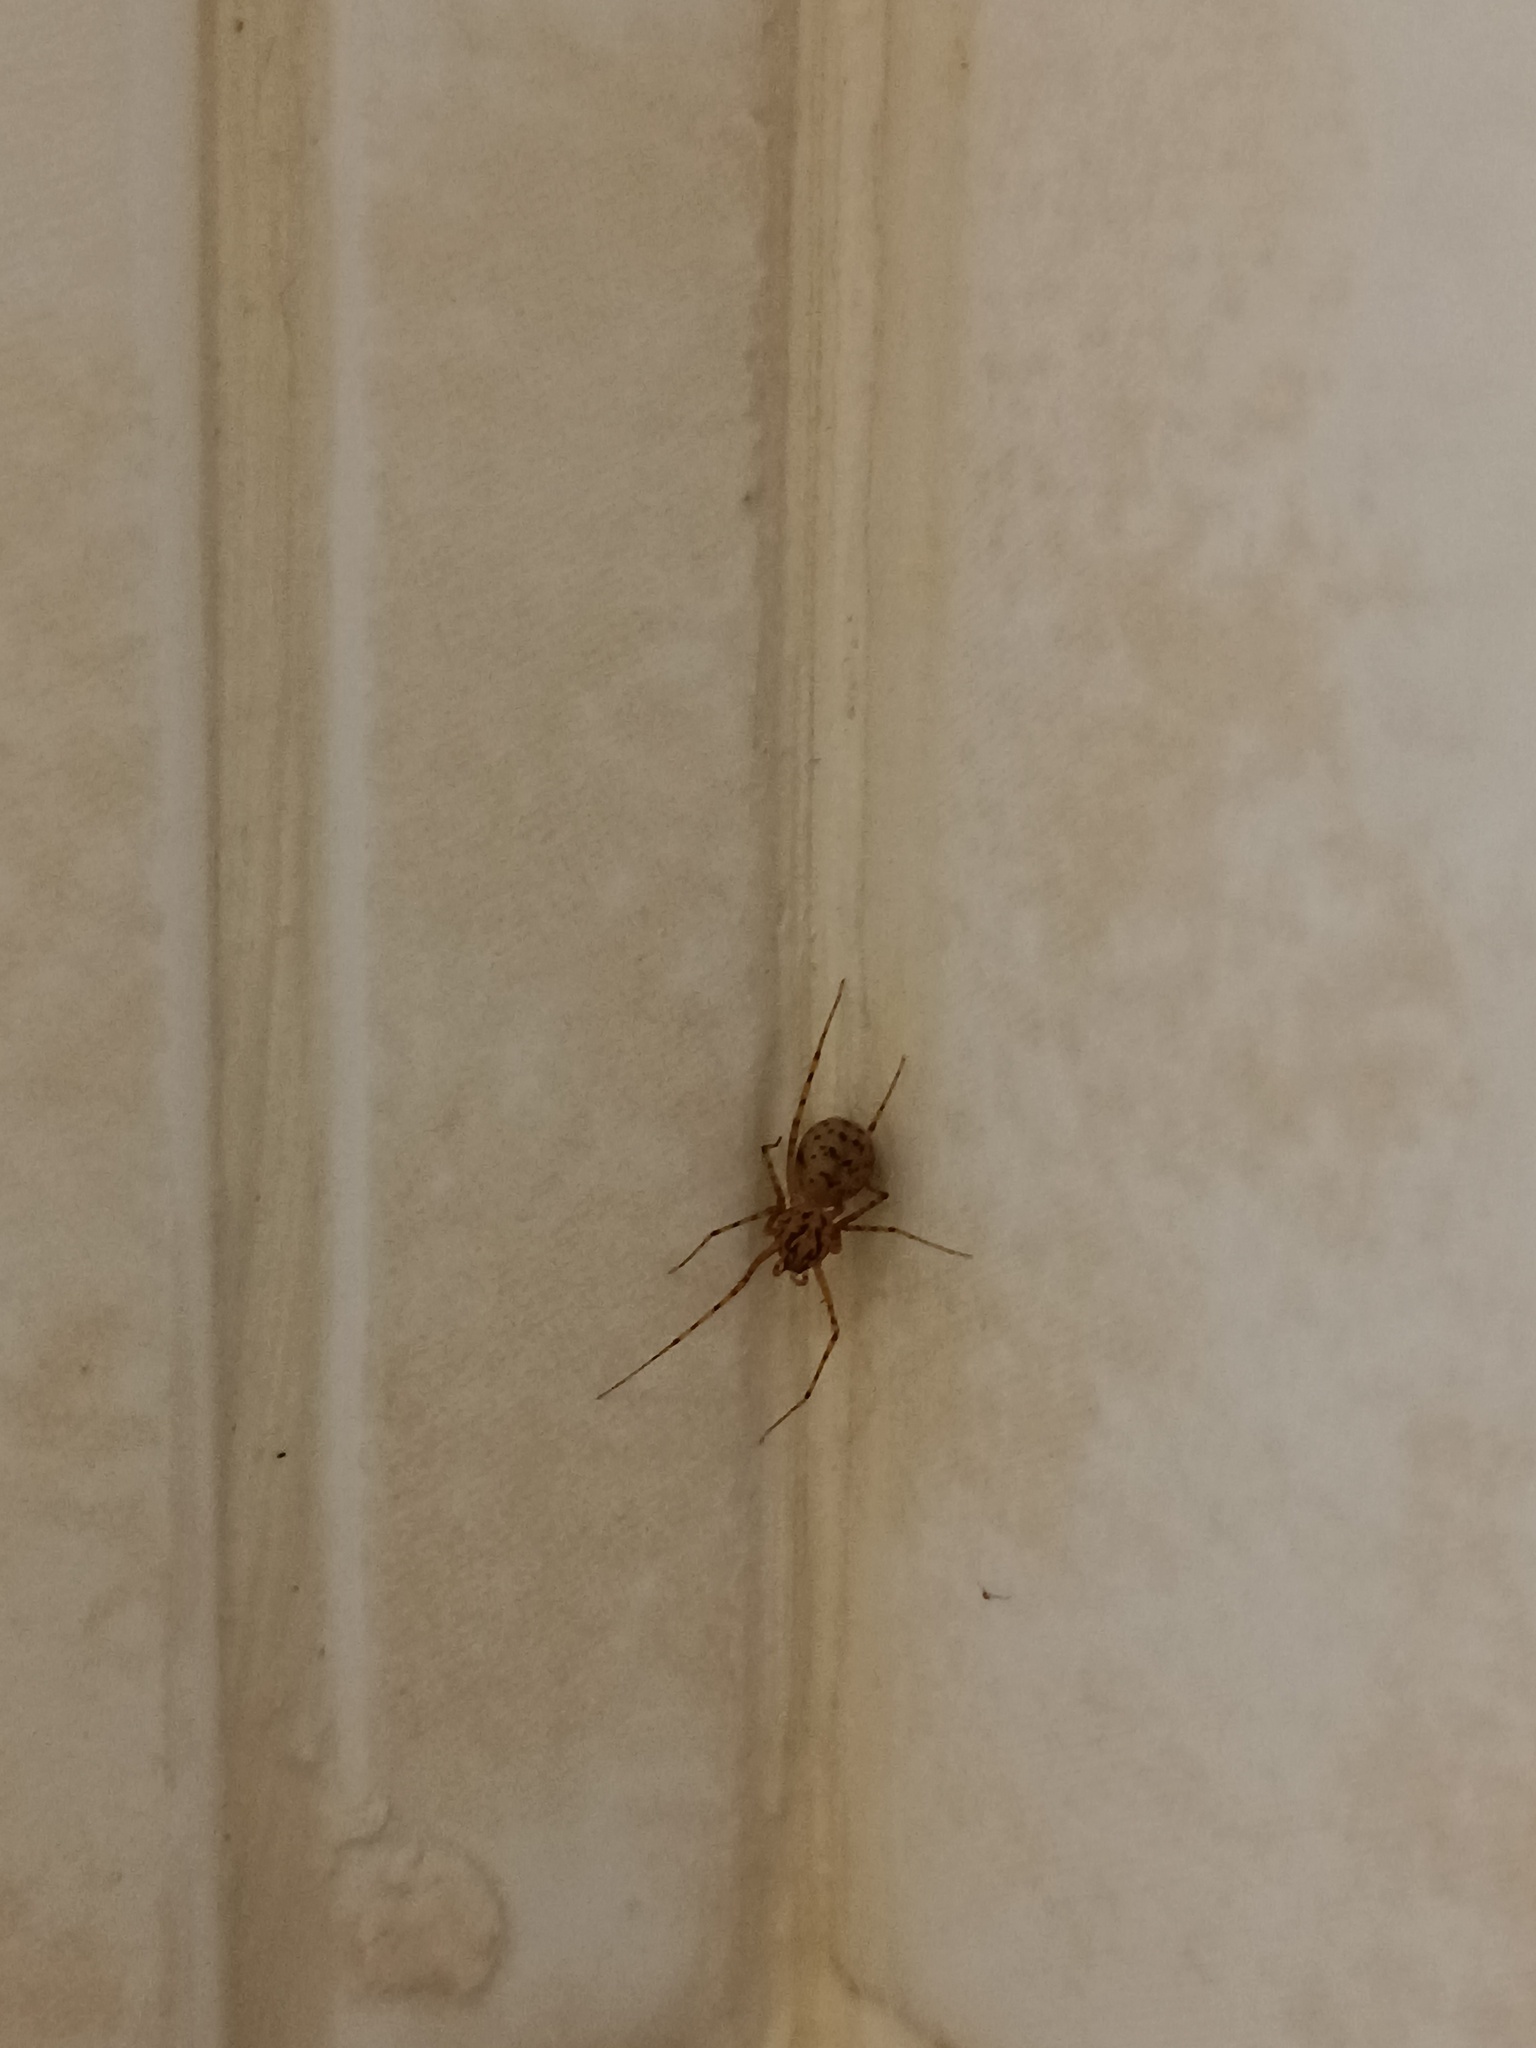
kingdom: Animalia
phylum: Arthropoda
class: Arachnida
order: Araneae
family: Scytodidae
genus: Scytodes
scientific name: Scytodes thoracica
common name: Spitting spider
